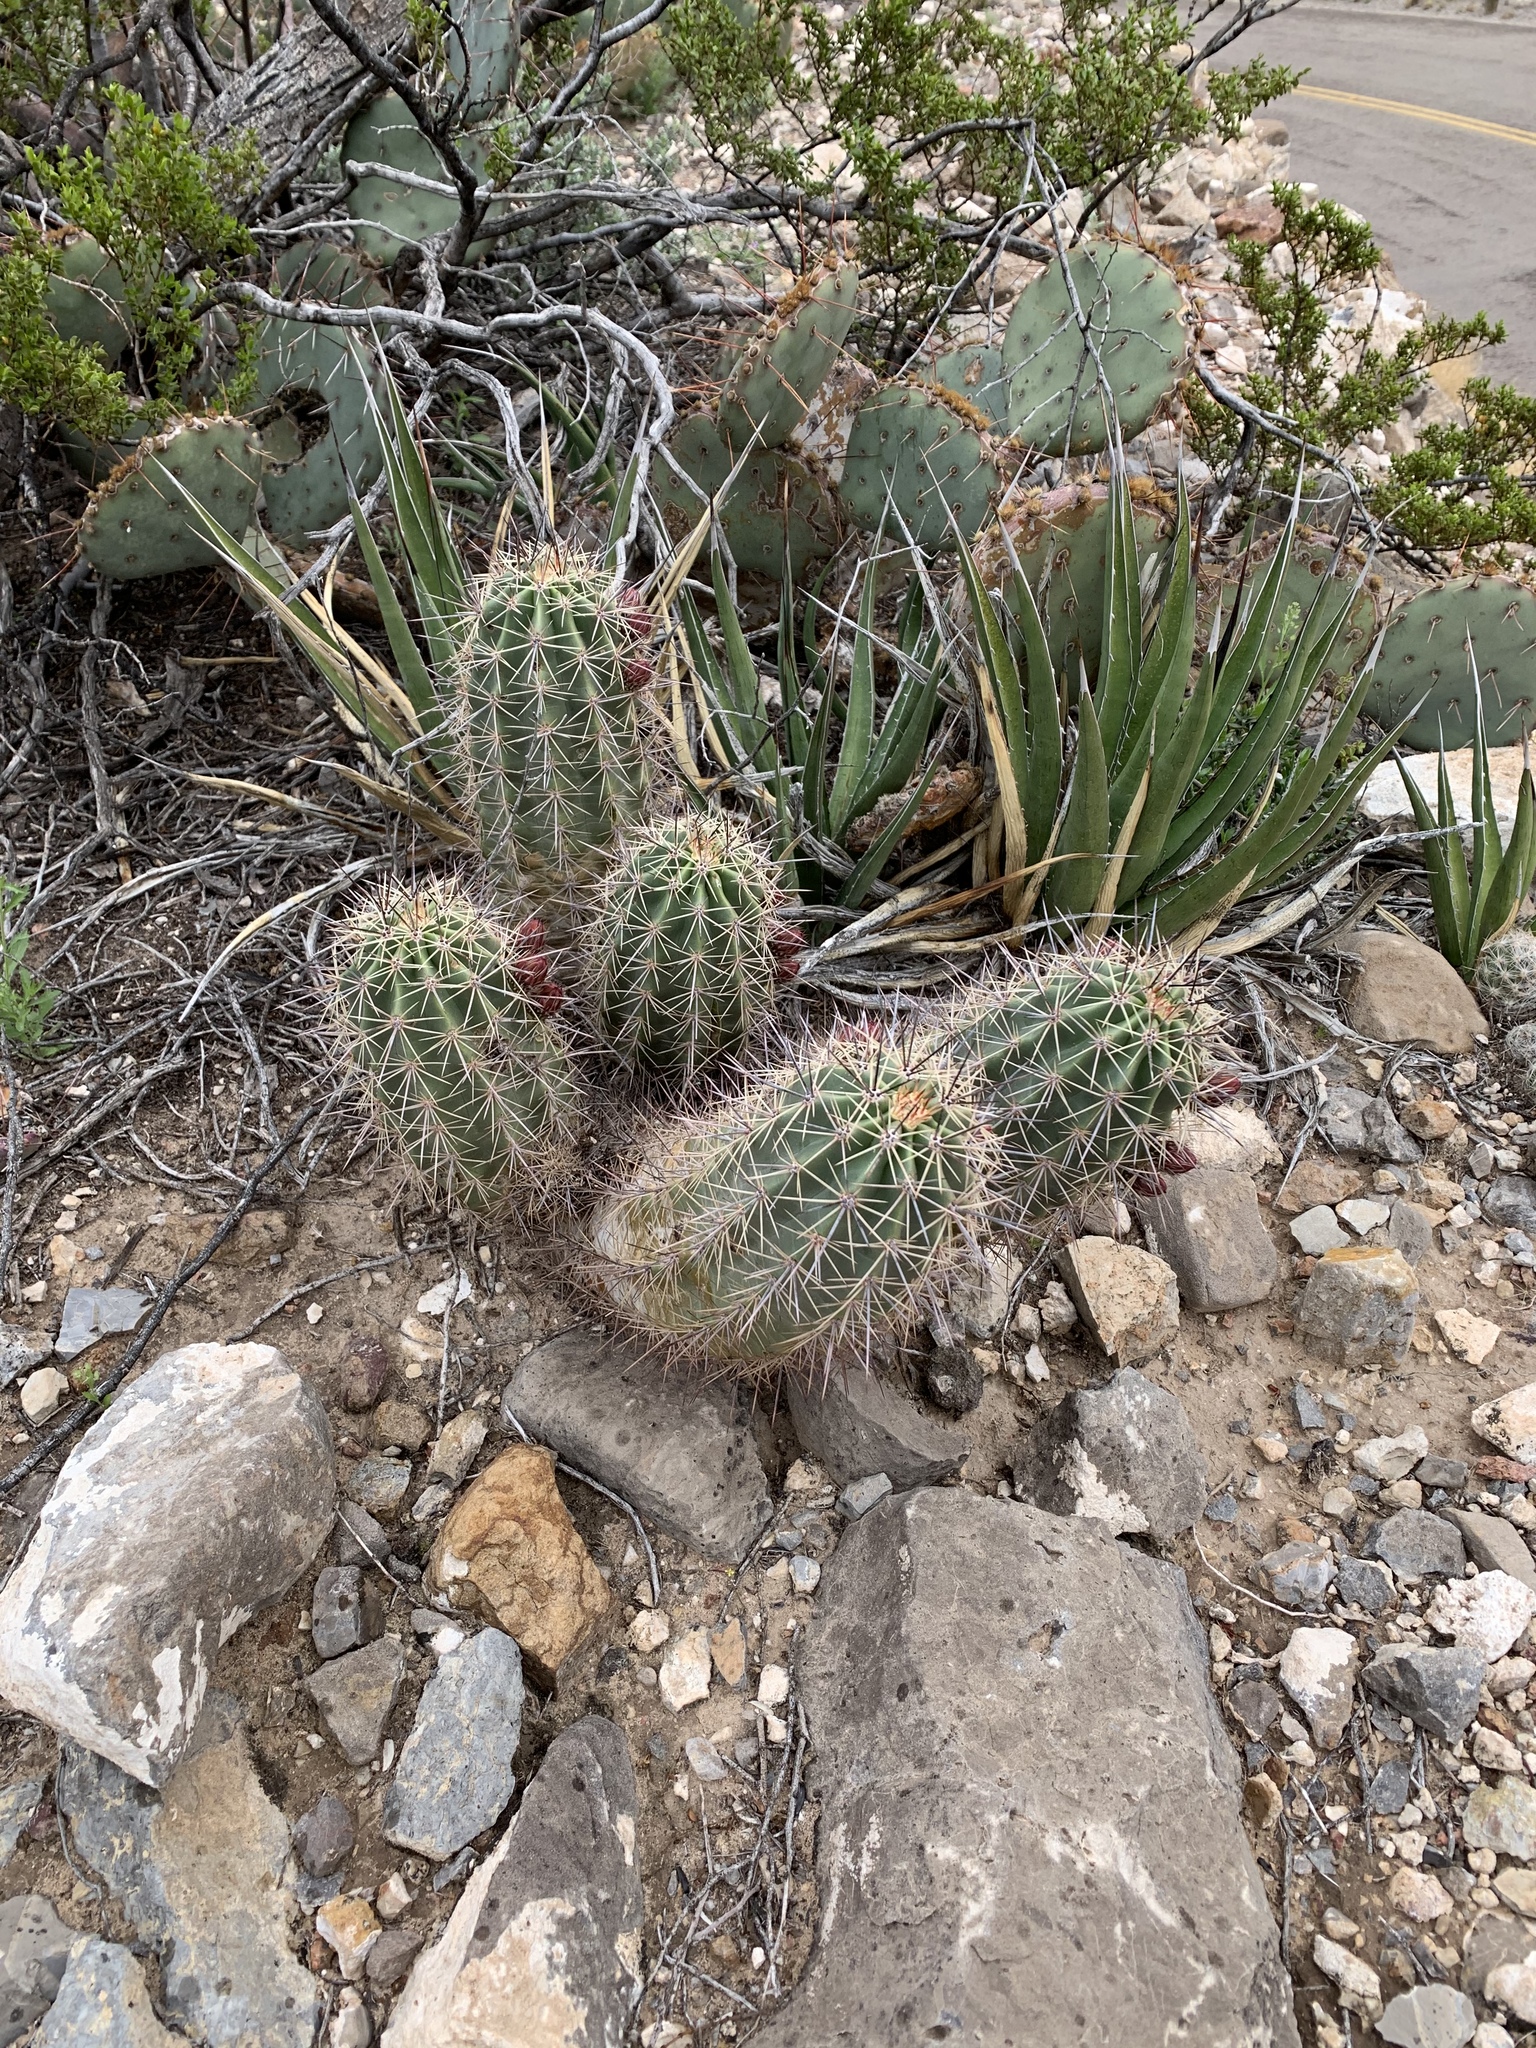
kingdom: Plantae
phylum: Tracheophyta
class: Magnoliopsida
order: Caryophyllales
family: Cactaceae
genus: Echinocereus
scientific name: Echinocereus coccineus
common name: Scarlet hedgehog cactus
